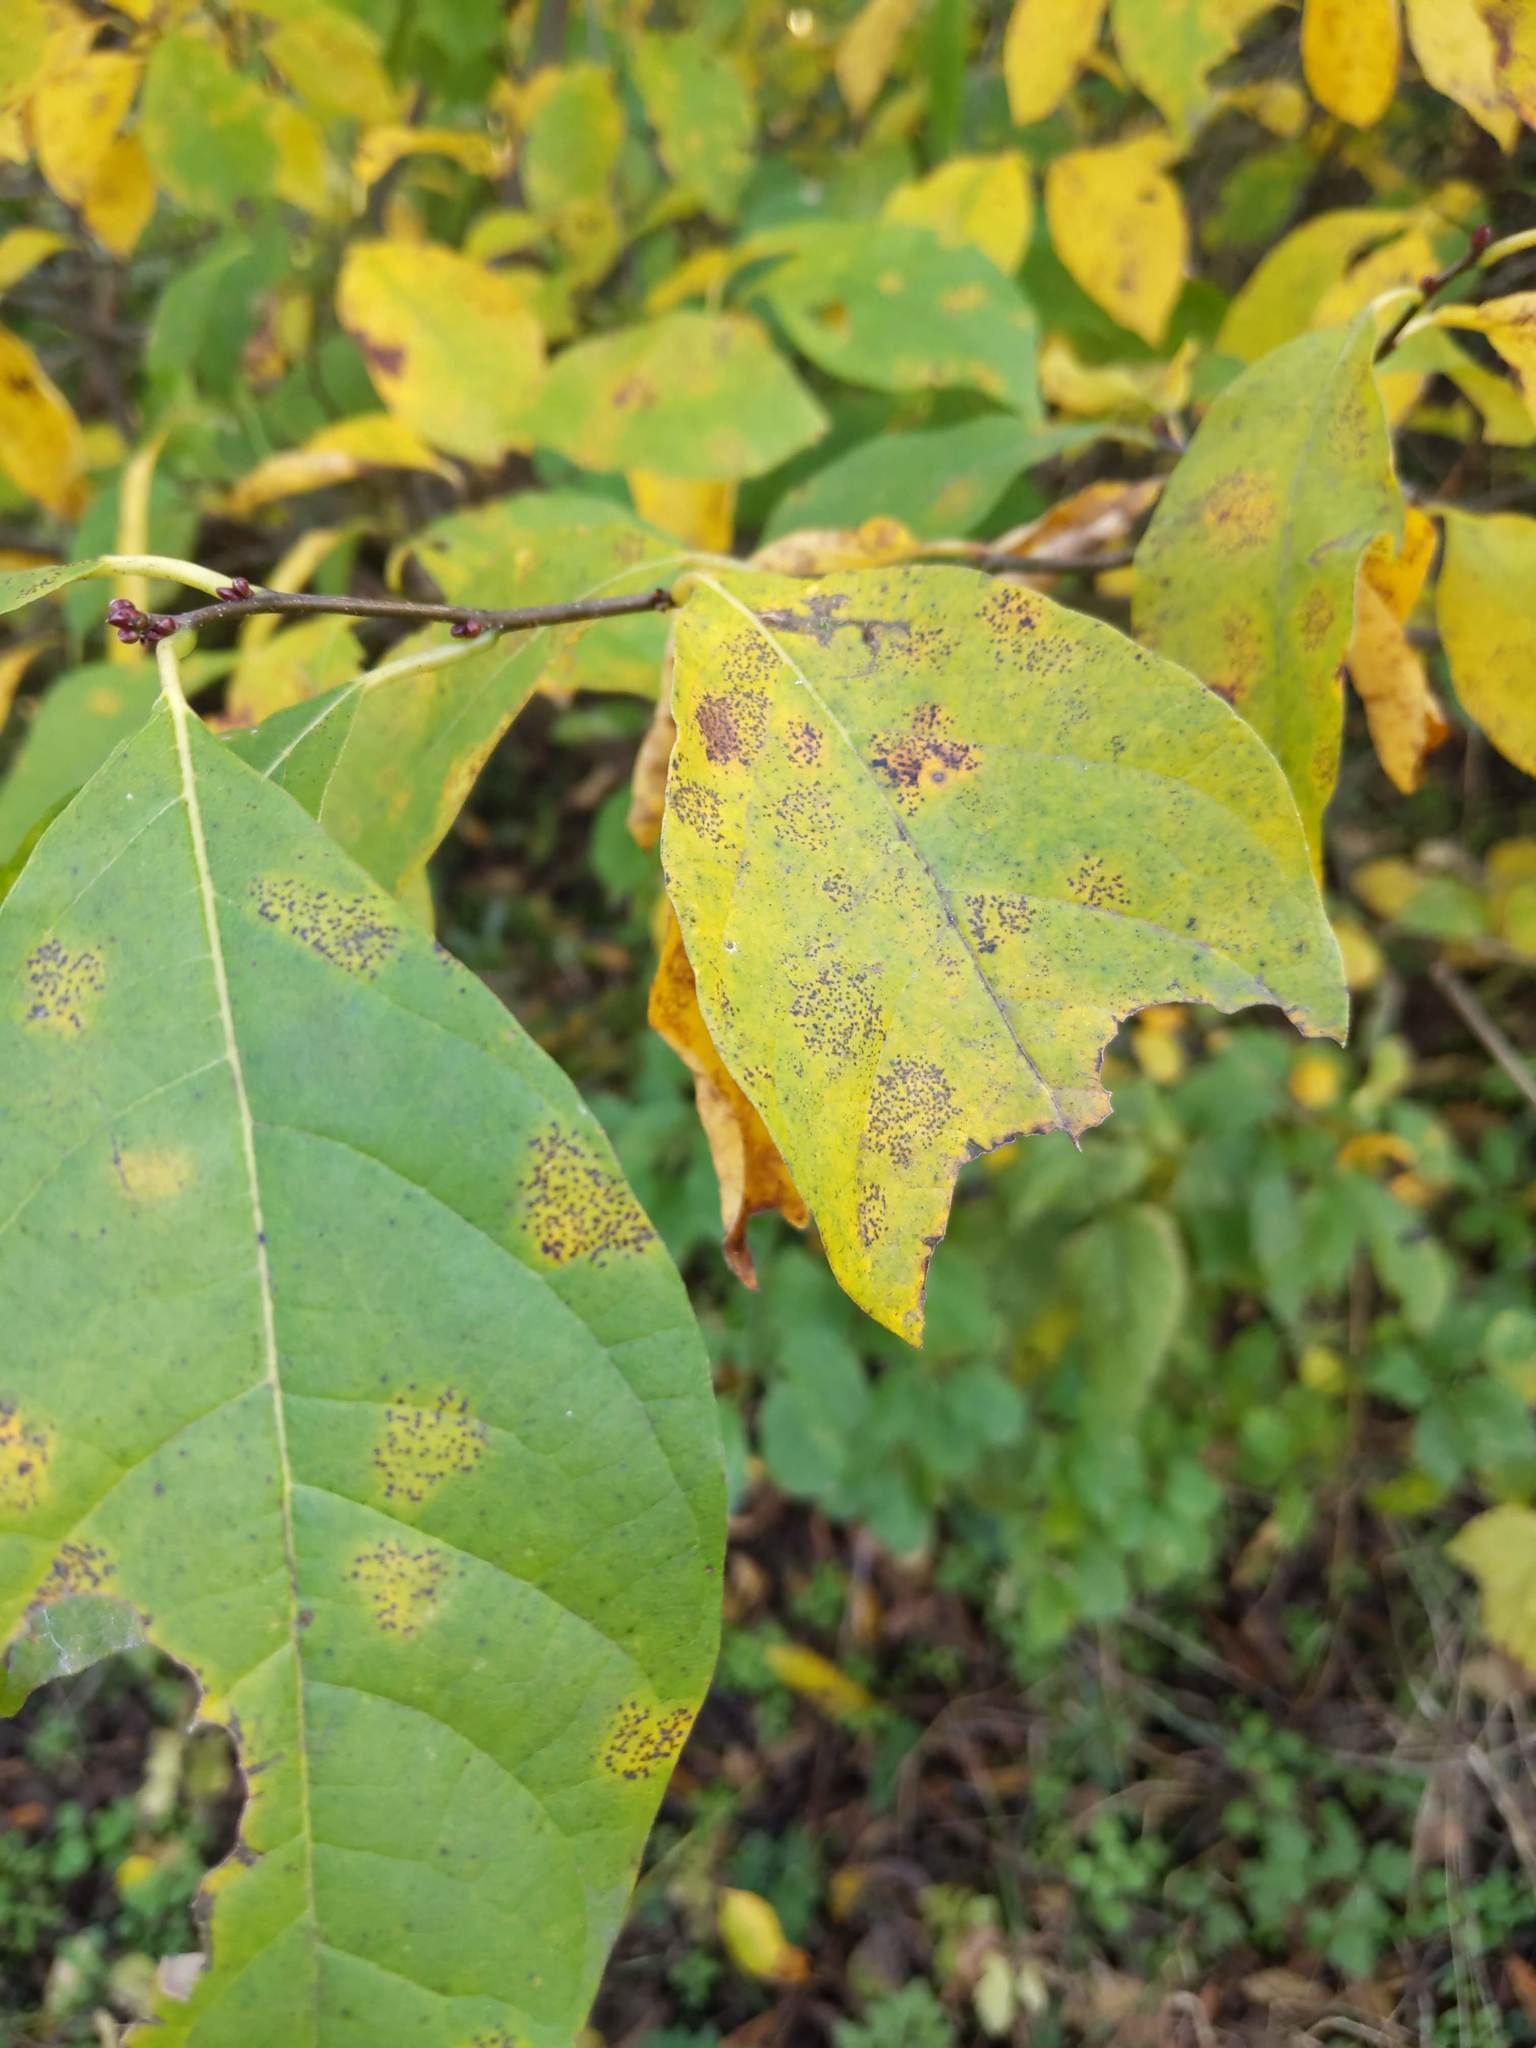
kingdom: Plantae
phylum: Tracheophyta
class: Magnoliopsida
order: Laurales
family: Lauraceae
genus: Lindera
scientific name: Lindera benzoin
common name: Spicebush
